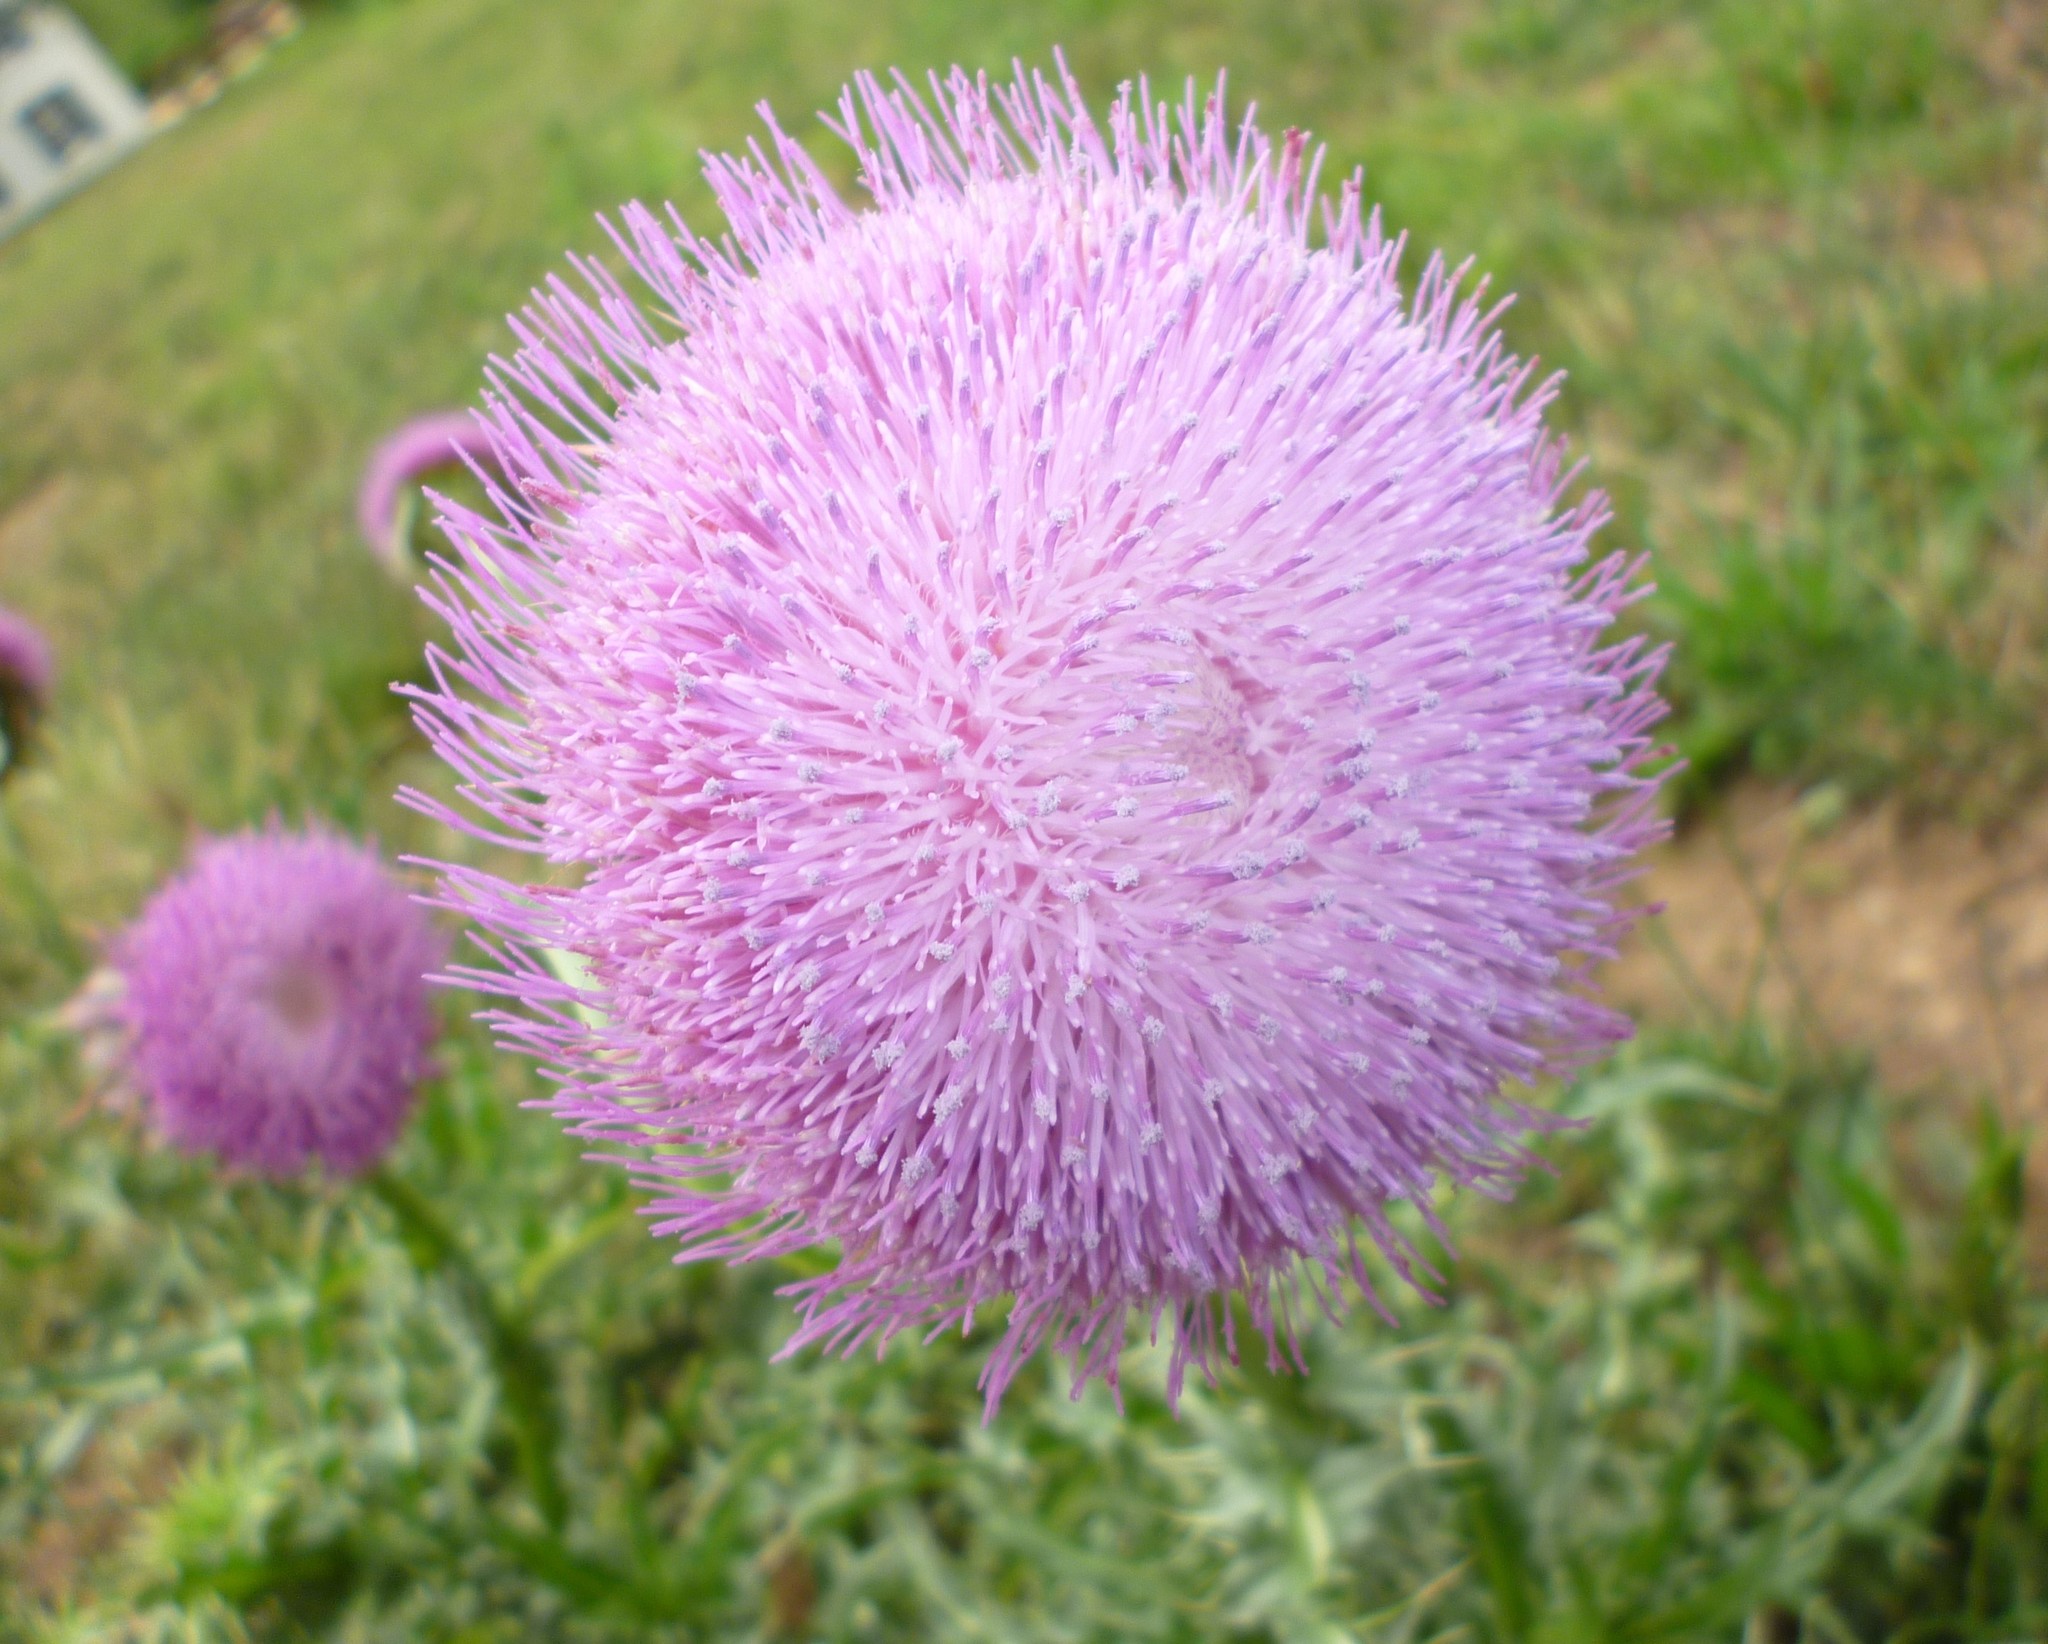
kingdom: Plantae
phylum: Tracheophyta
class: Magnoliopsida
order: Asterales
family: Asteraceae
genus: Carduus
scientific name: Carduus nutans
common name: Musk thistle
